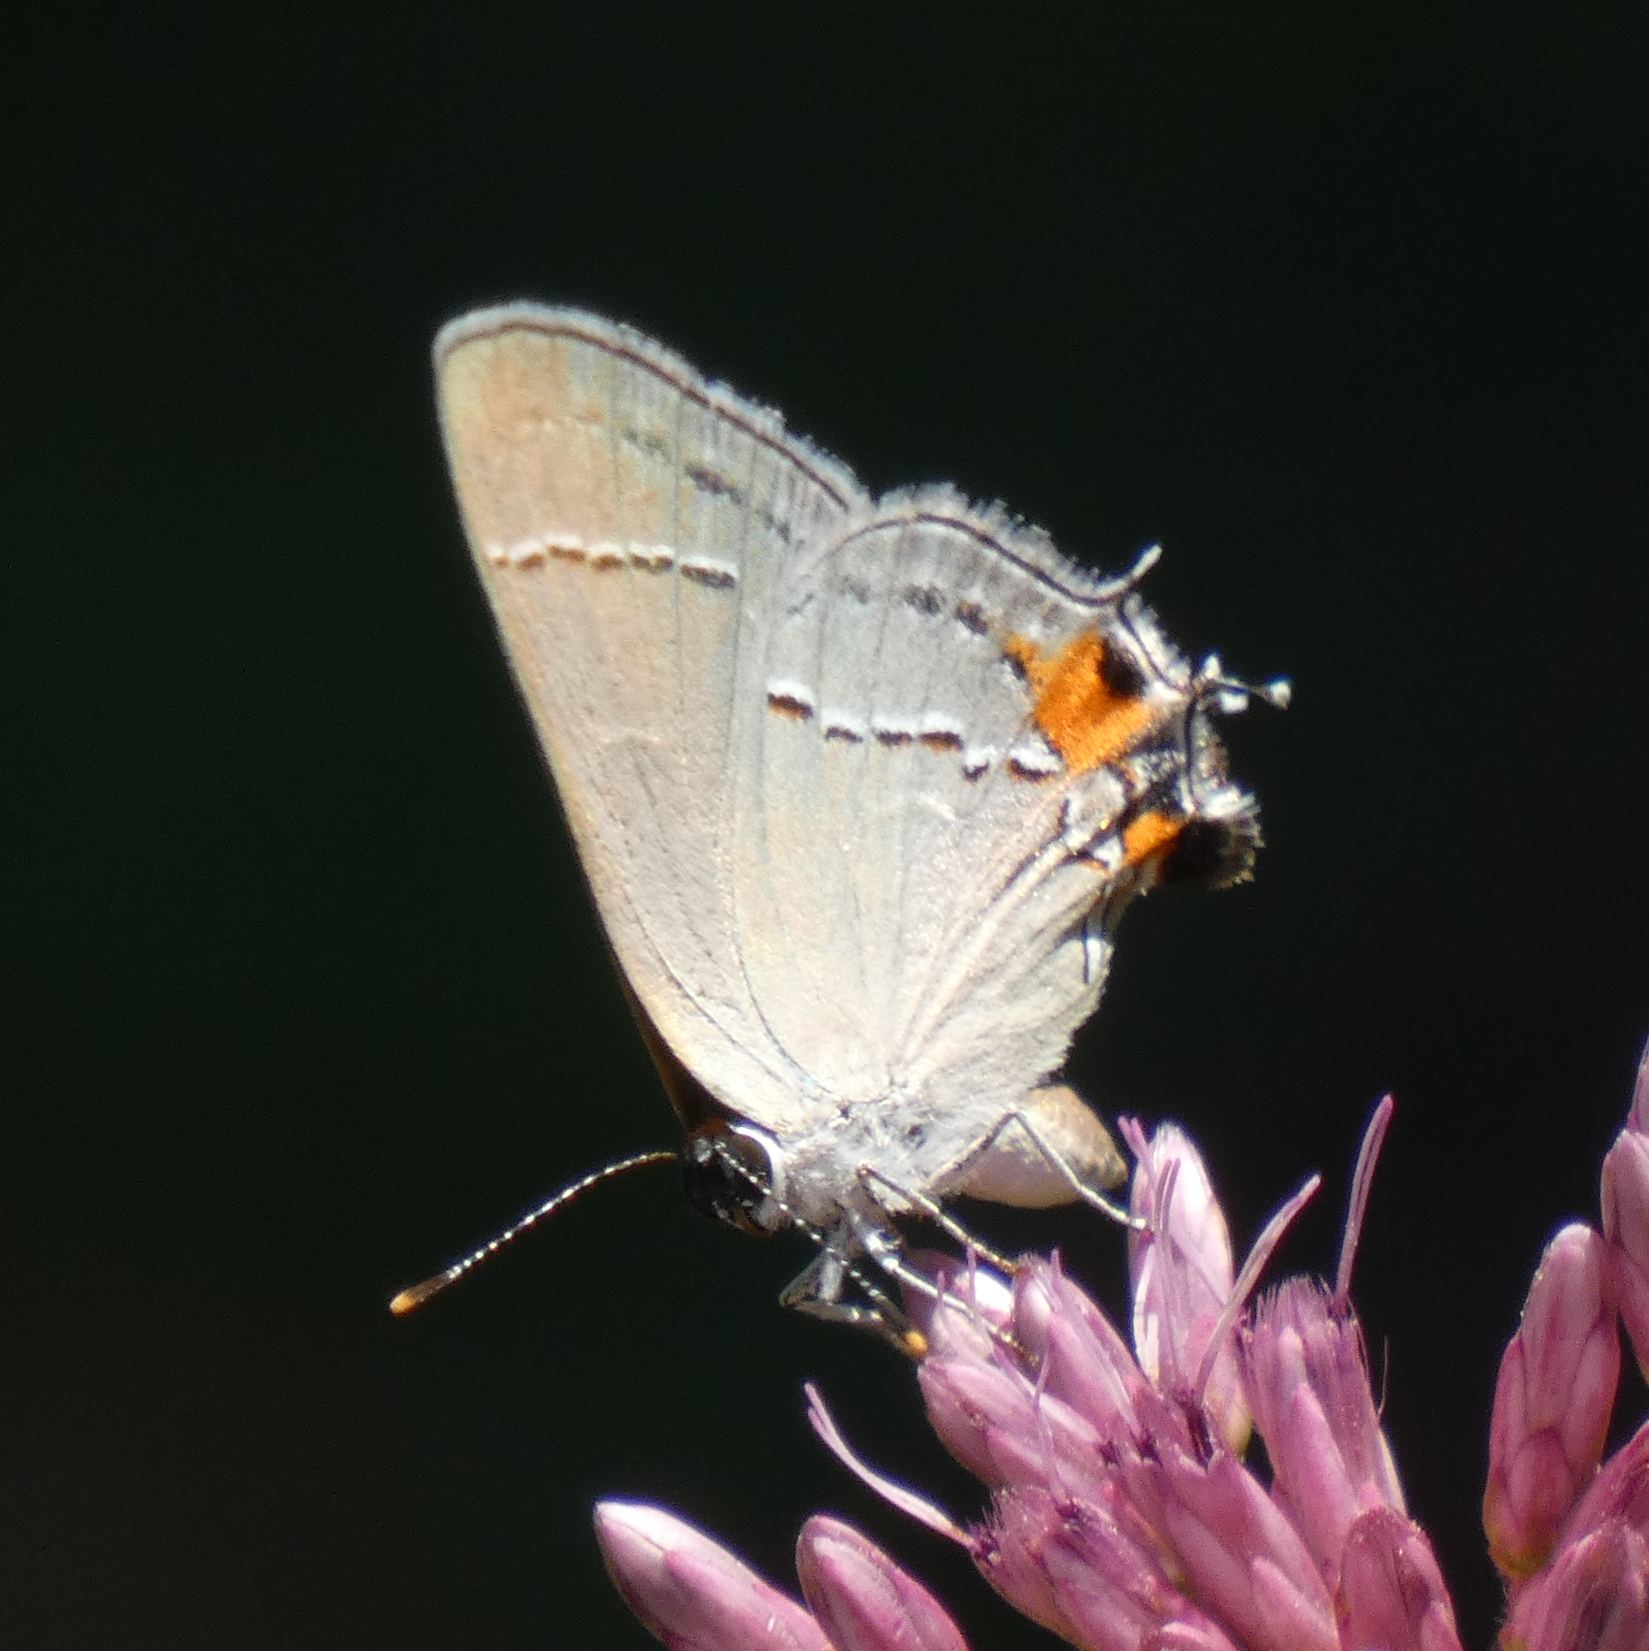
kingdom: Animalia
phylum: Arthropoda
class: Insecta
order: Lepidoptera
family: Lycaenidae
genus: Strymon
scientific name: Strymon melinus
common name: Gray hairstreak
